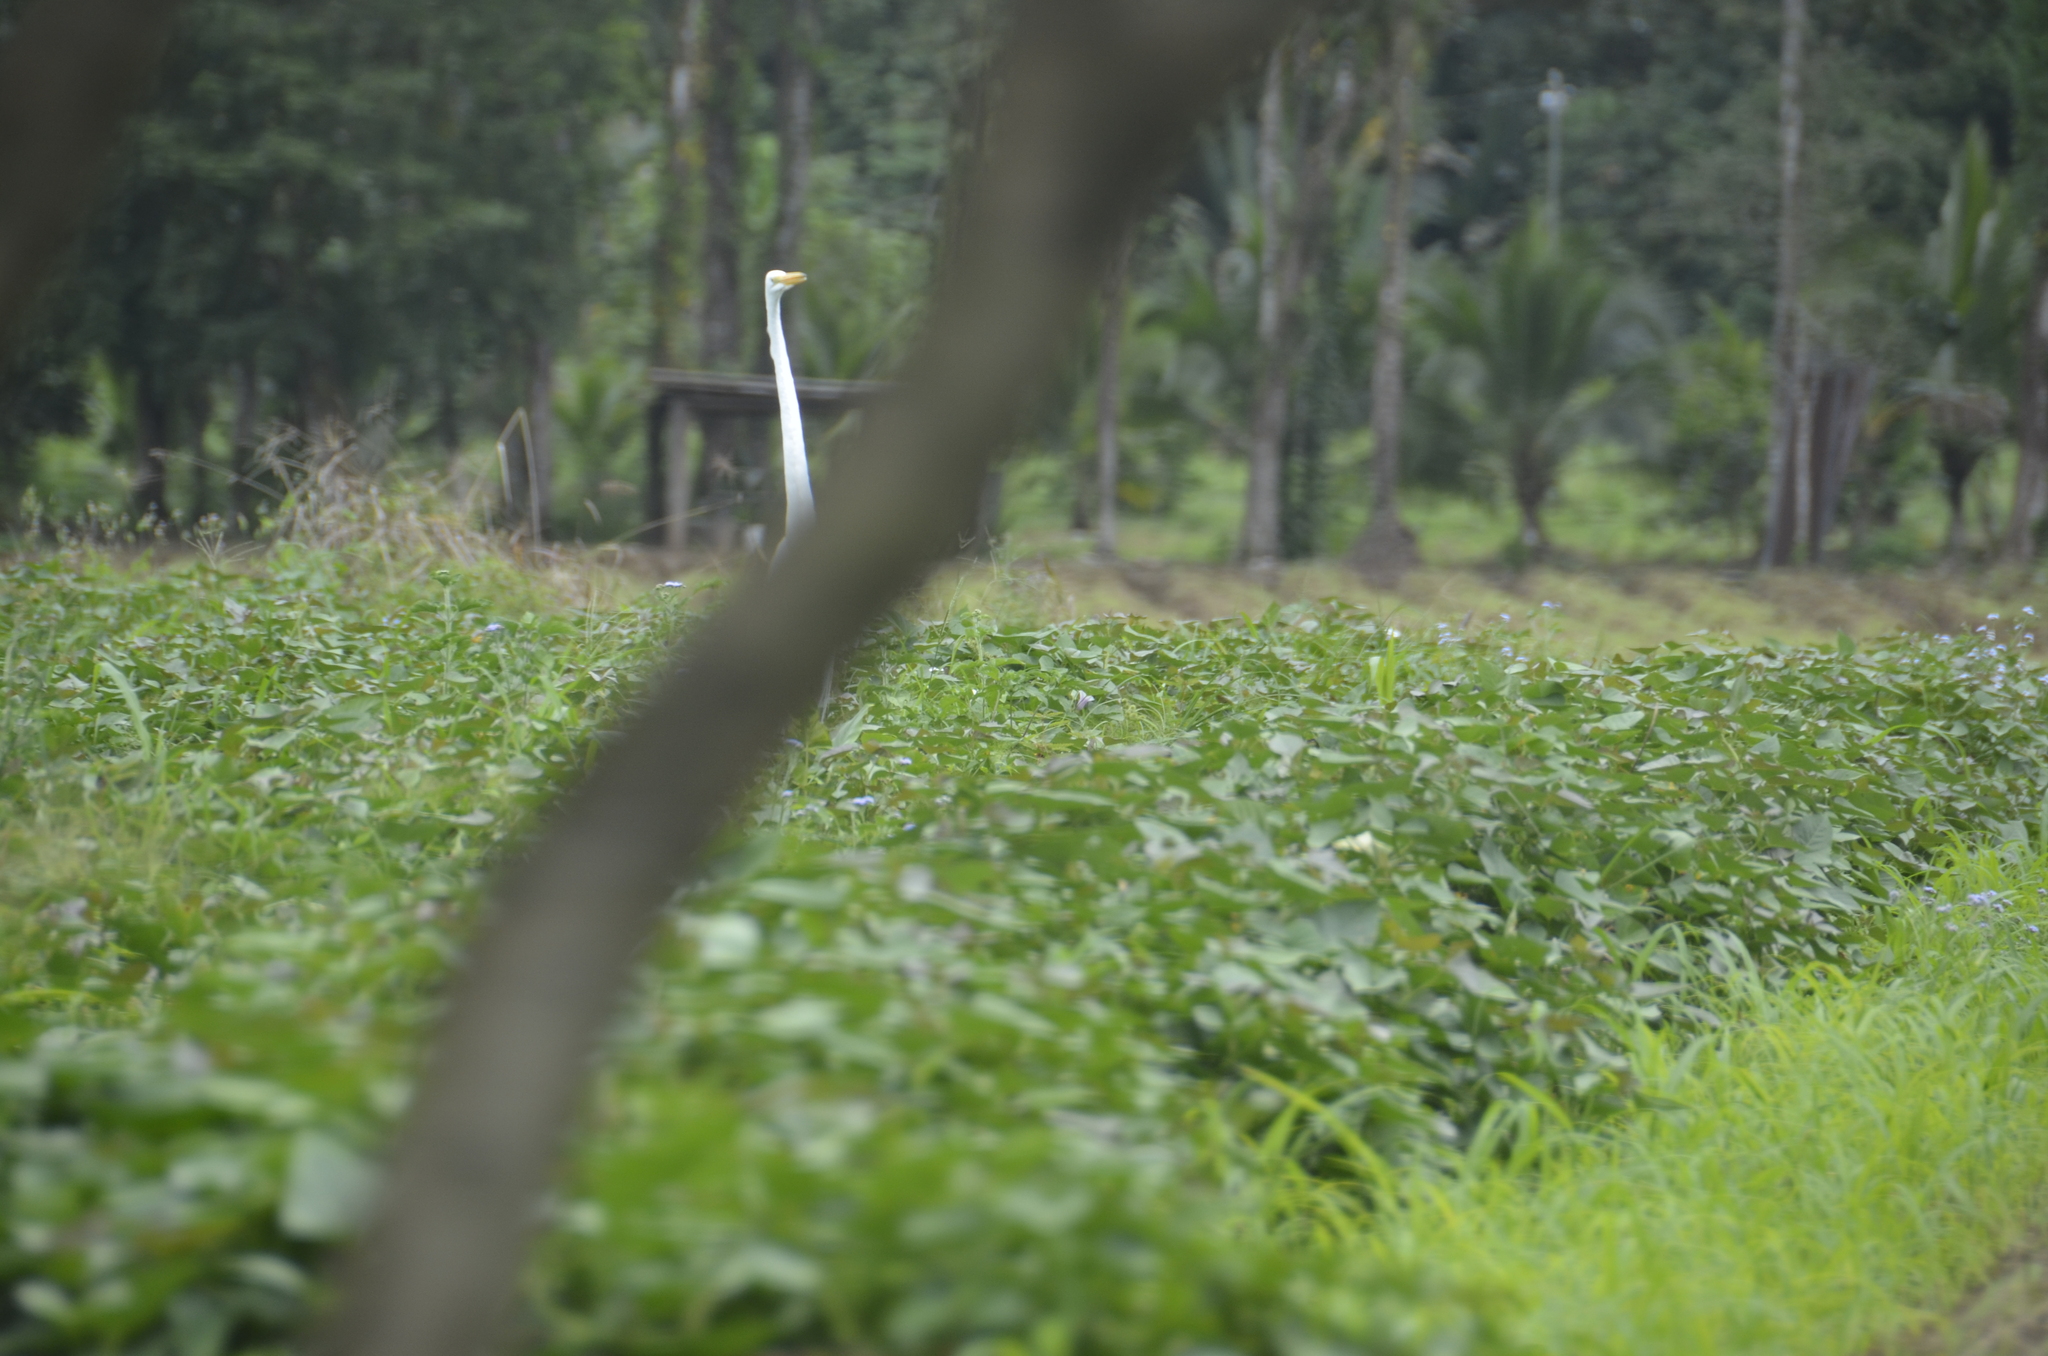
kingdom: Animalia
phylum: Chordata
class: Aves
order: Pelecaniformes
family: Ardeidae
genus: Ardea
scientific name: Ardea alba
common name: Great egret
